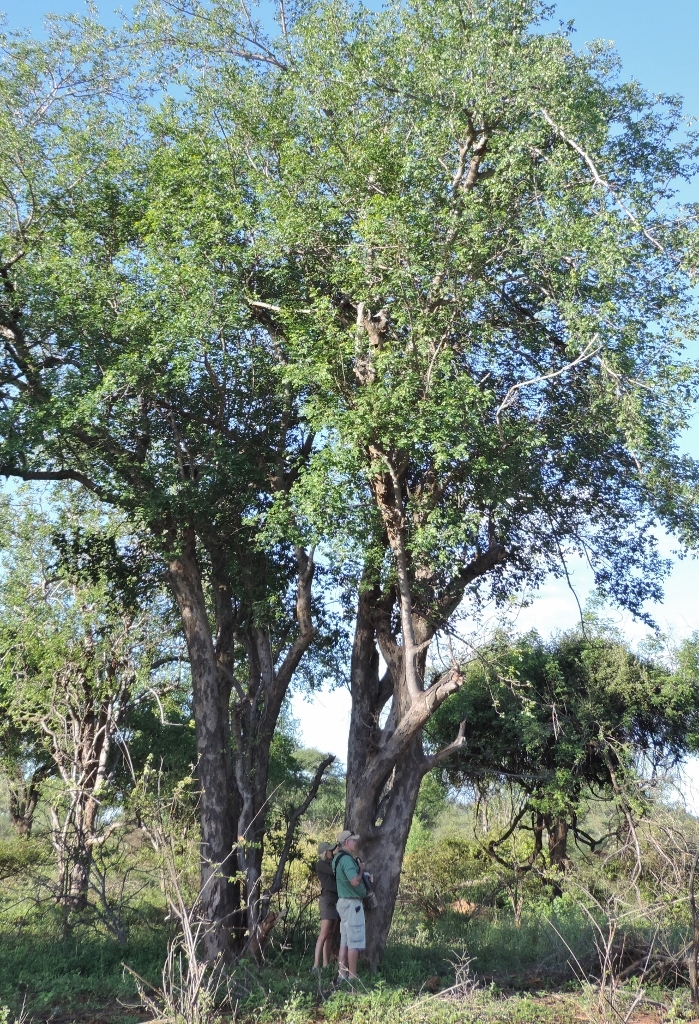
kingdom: Plantae
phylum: Tracheophyta
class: Magnoliopsida
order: Sapindales
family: Anacardiaceae
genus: Sclerocarya
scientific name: Sclerocarya birrea
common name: Marula
